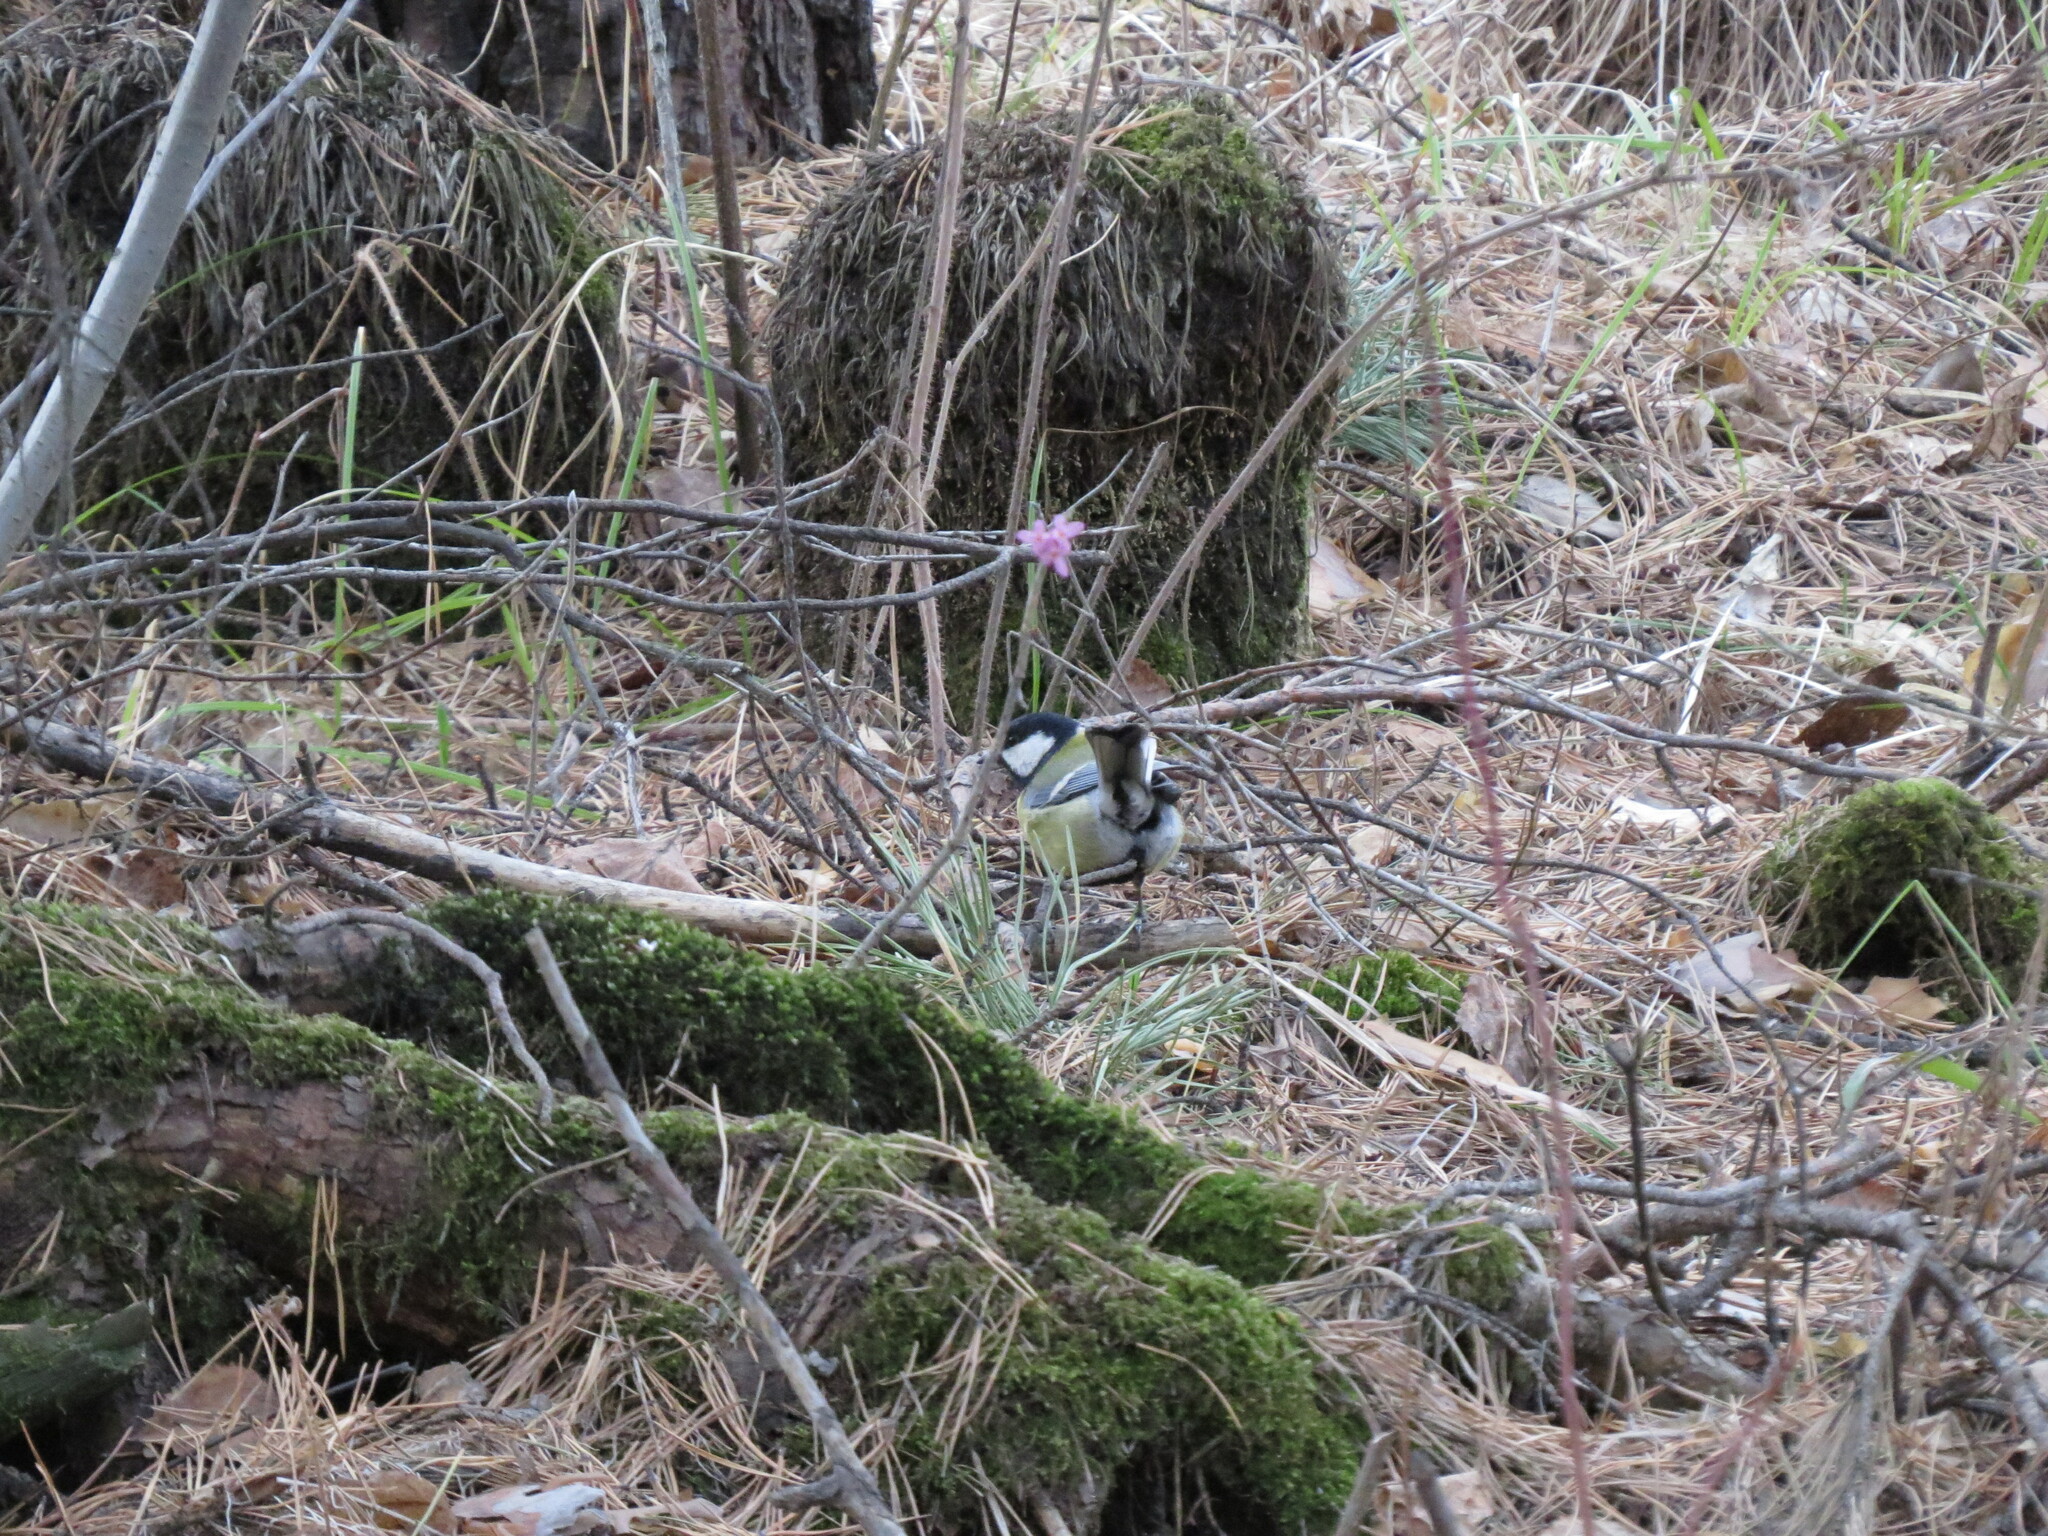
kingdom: Animalia
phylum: Chordata
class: Aves
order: Passeriformes
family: Paridae
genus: Parus
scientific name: Parus major
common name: Great tit
